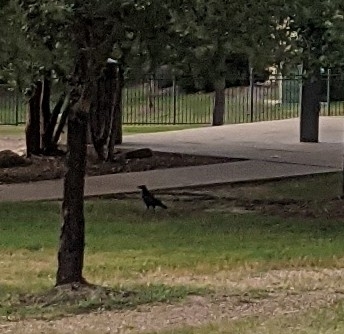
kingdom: Animalia
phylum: Chordata
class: Aves
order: Passeriformes
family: Corvidae
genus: Corvus
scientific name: Corvus brachyrhynchos
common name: American crow
